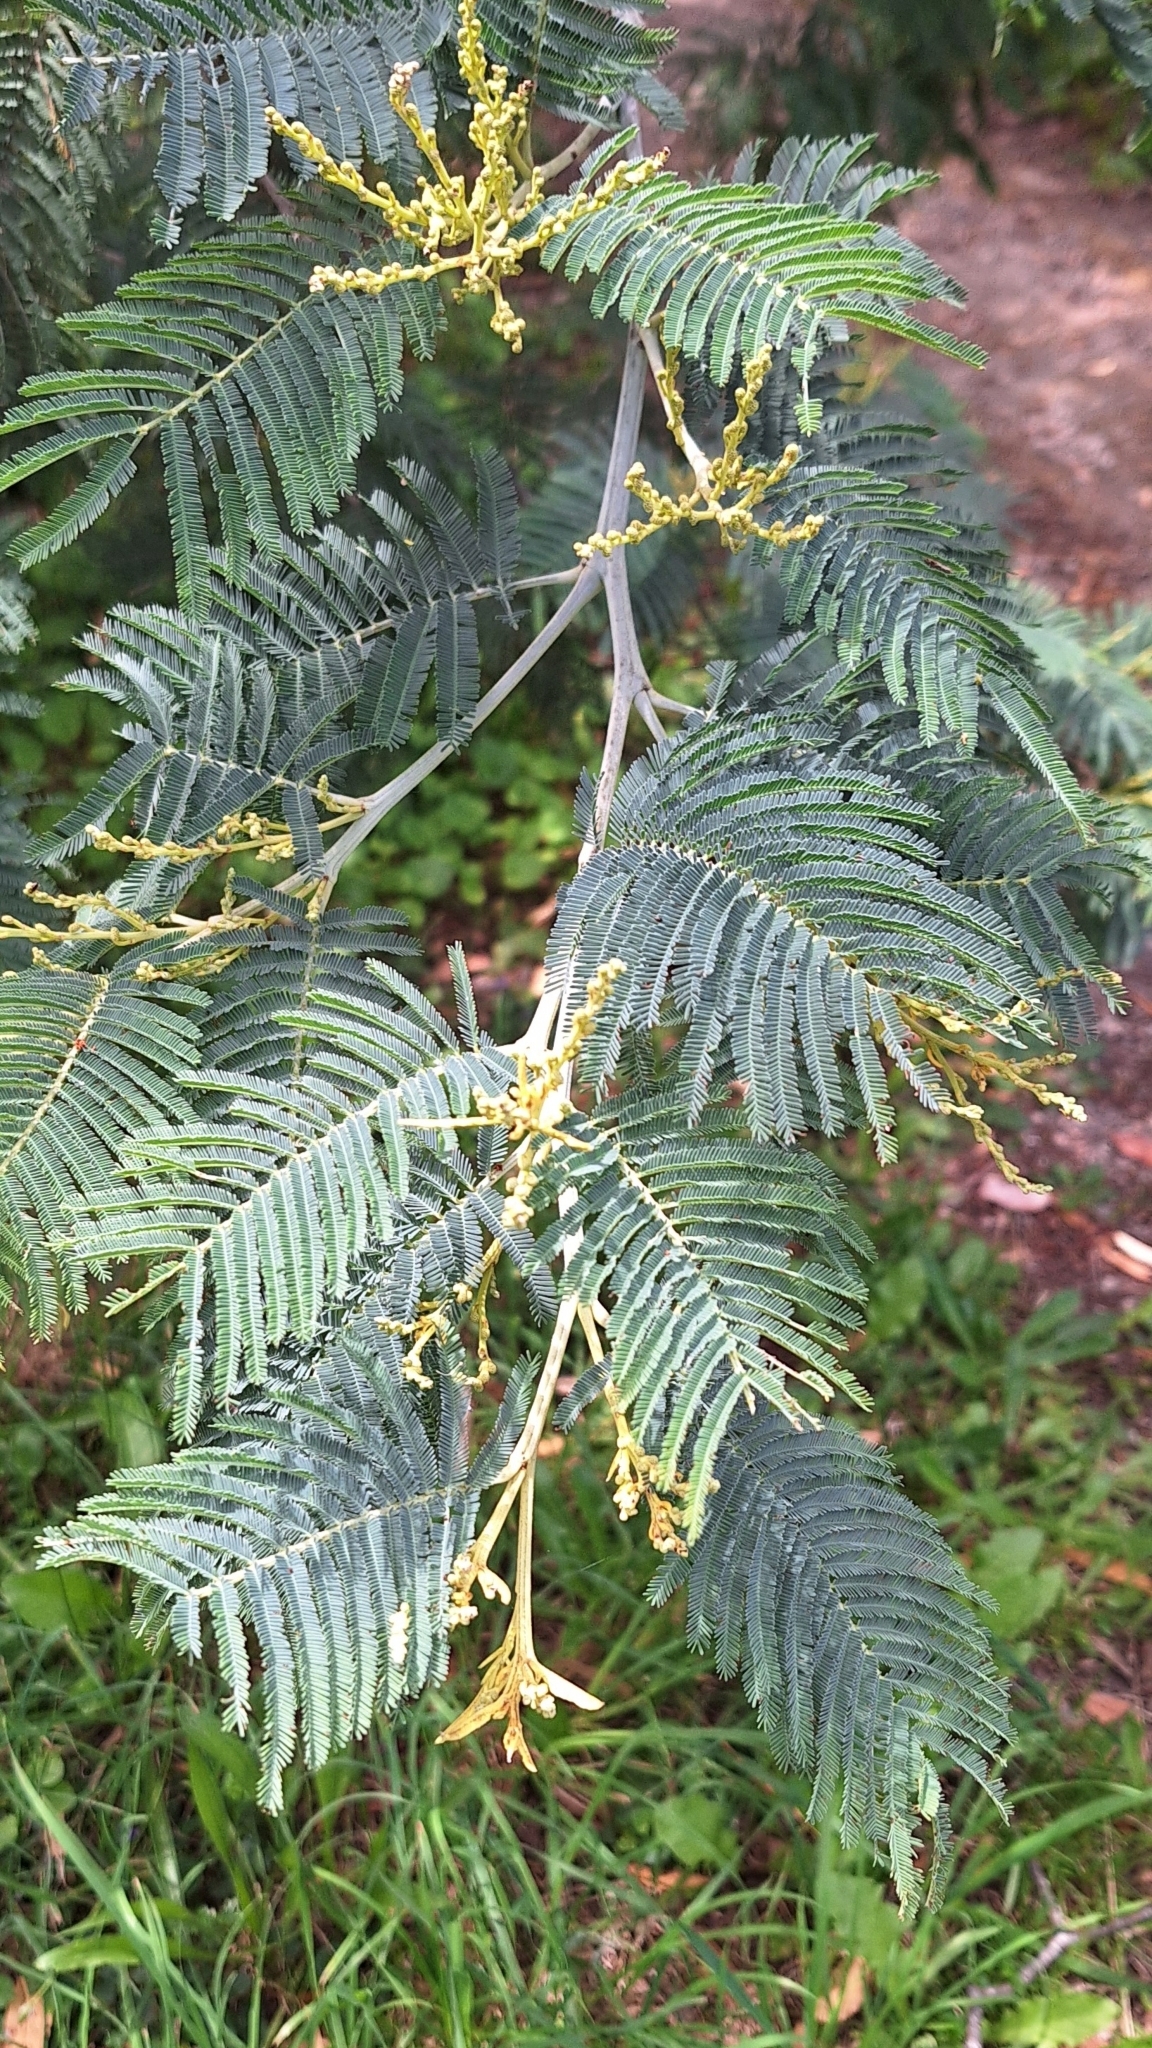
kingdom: Plantae
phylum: Tracheophyta
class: Magnoliopsida
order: Fabales
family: Fabaceae
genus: Acacia
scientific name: Acacia dealbata
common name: Silver wattle
